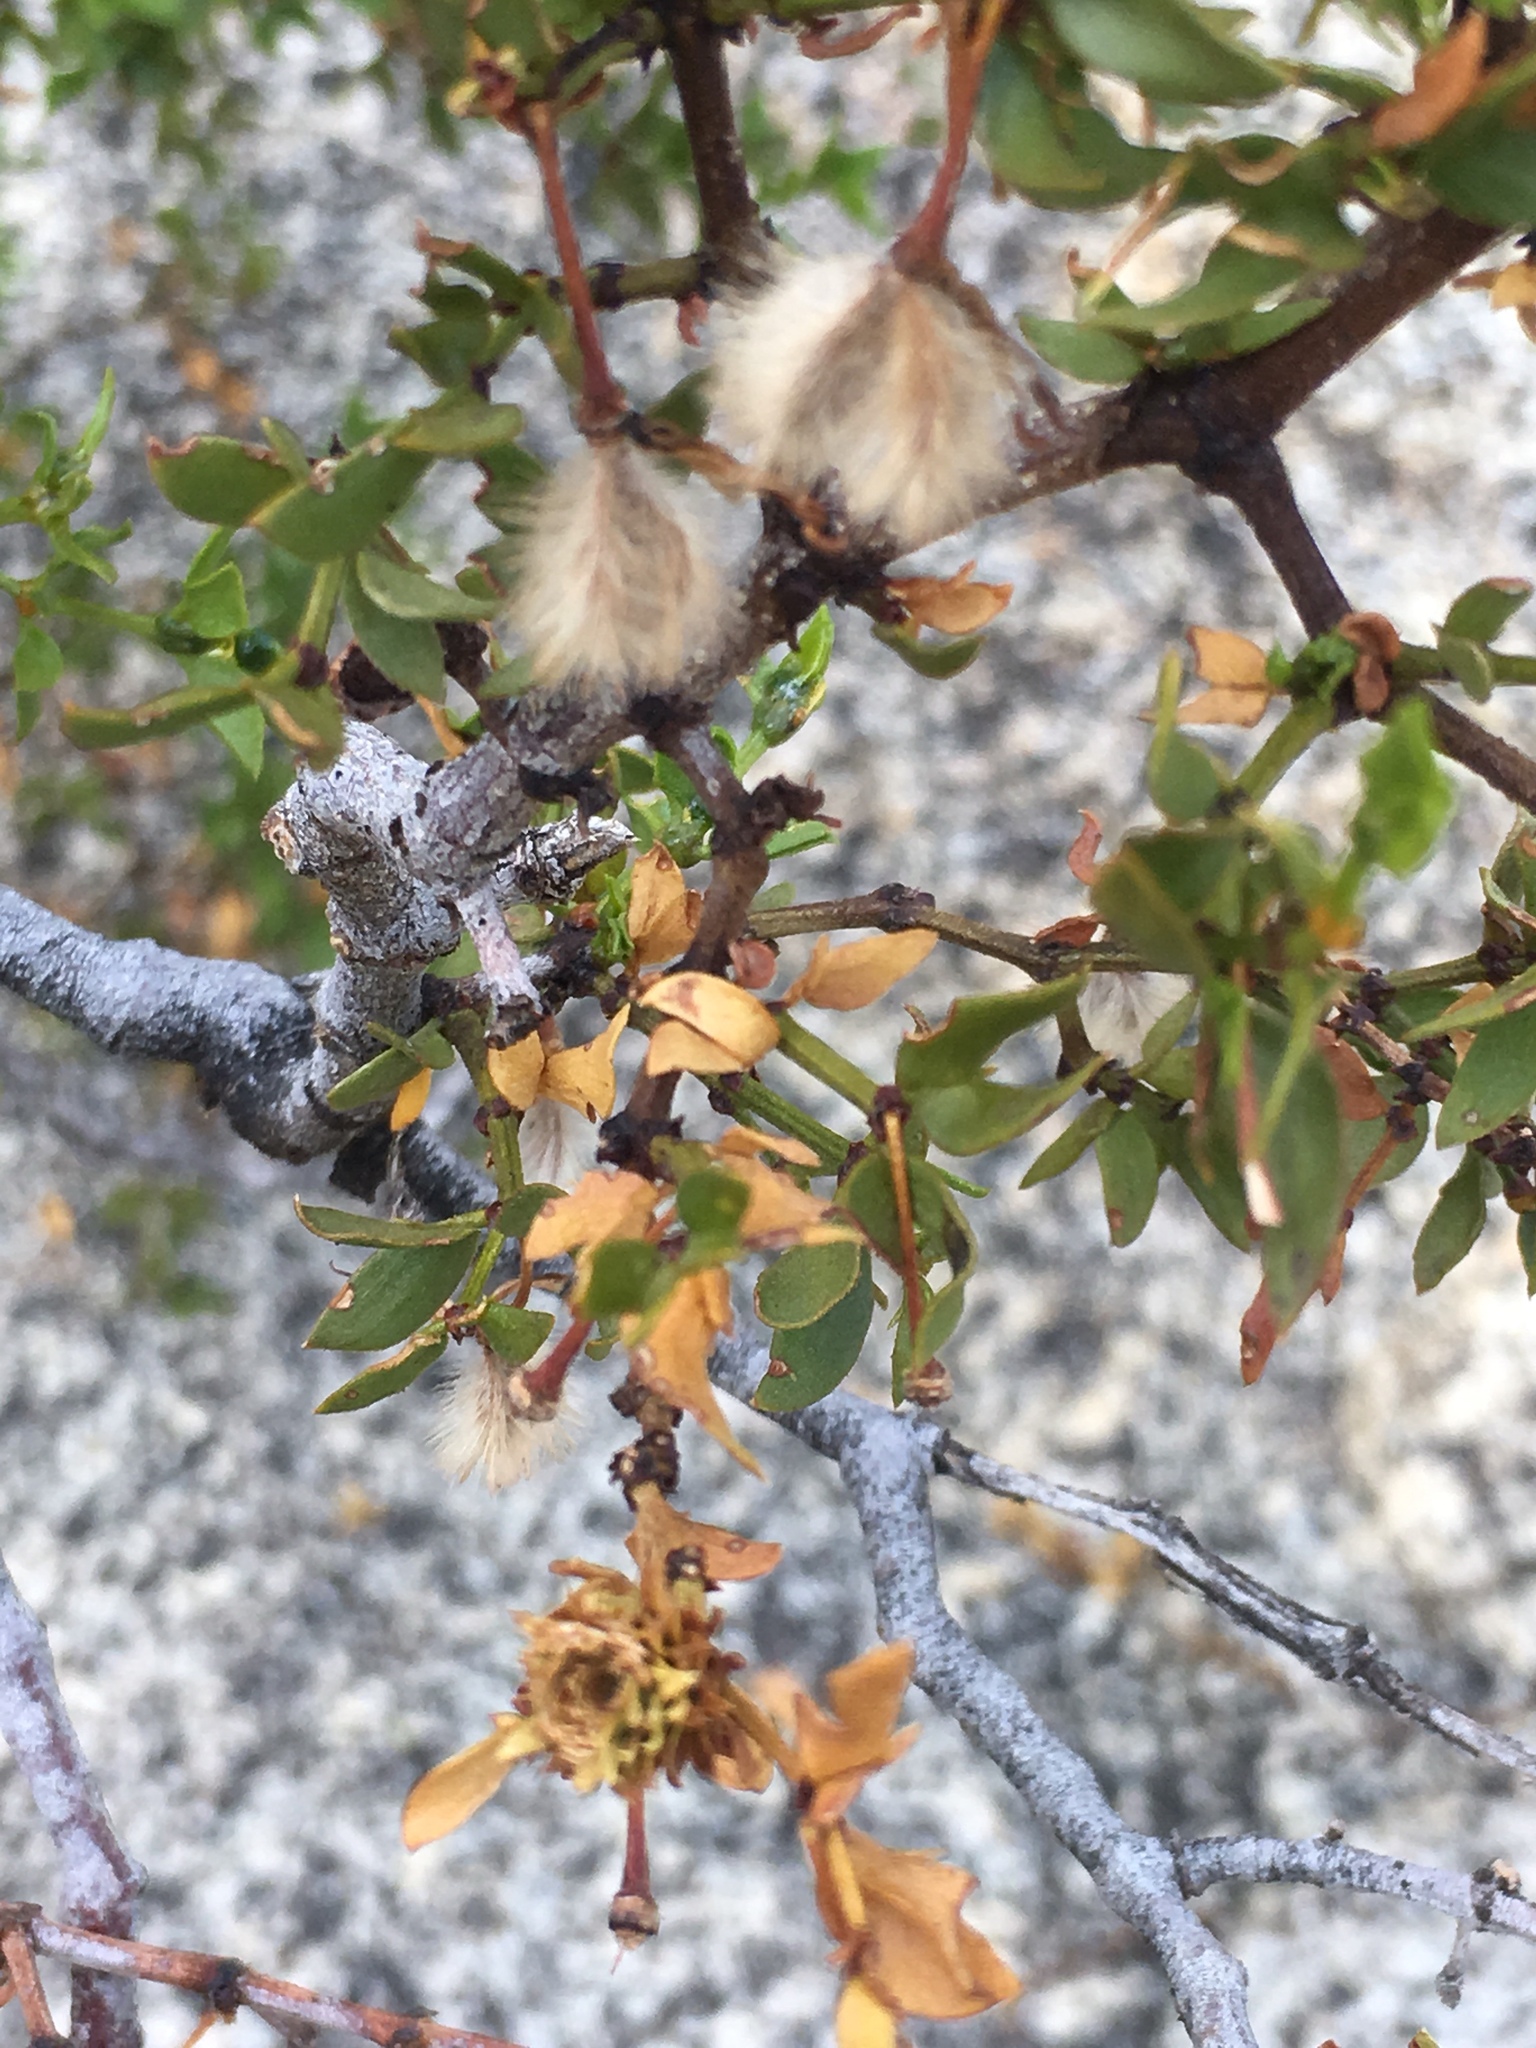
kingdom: Animalia
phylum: Arthropoda
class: Insecta
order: Diptera
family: Cecidomyiidae
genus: Asphondylia
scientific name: Asphondylia auripila
